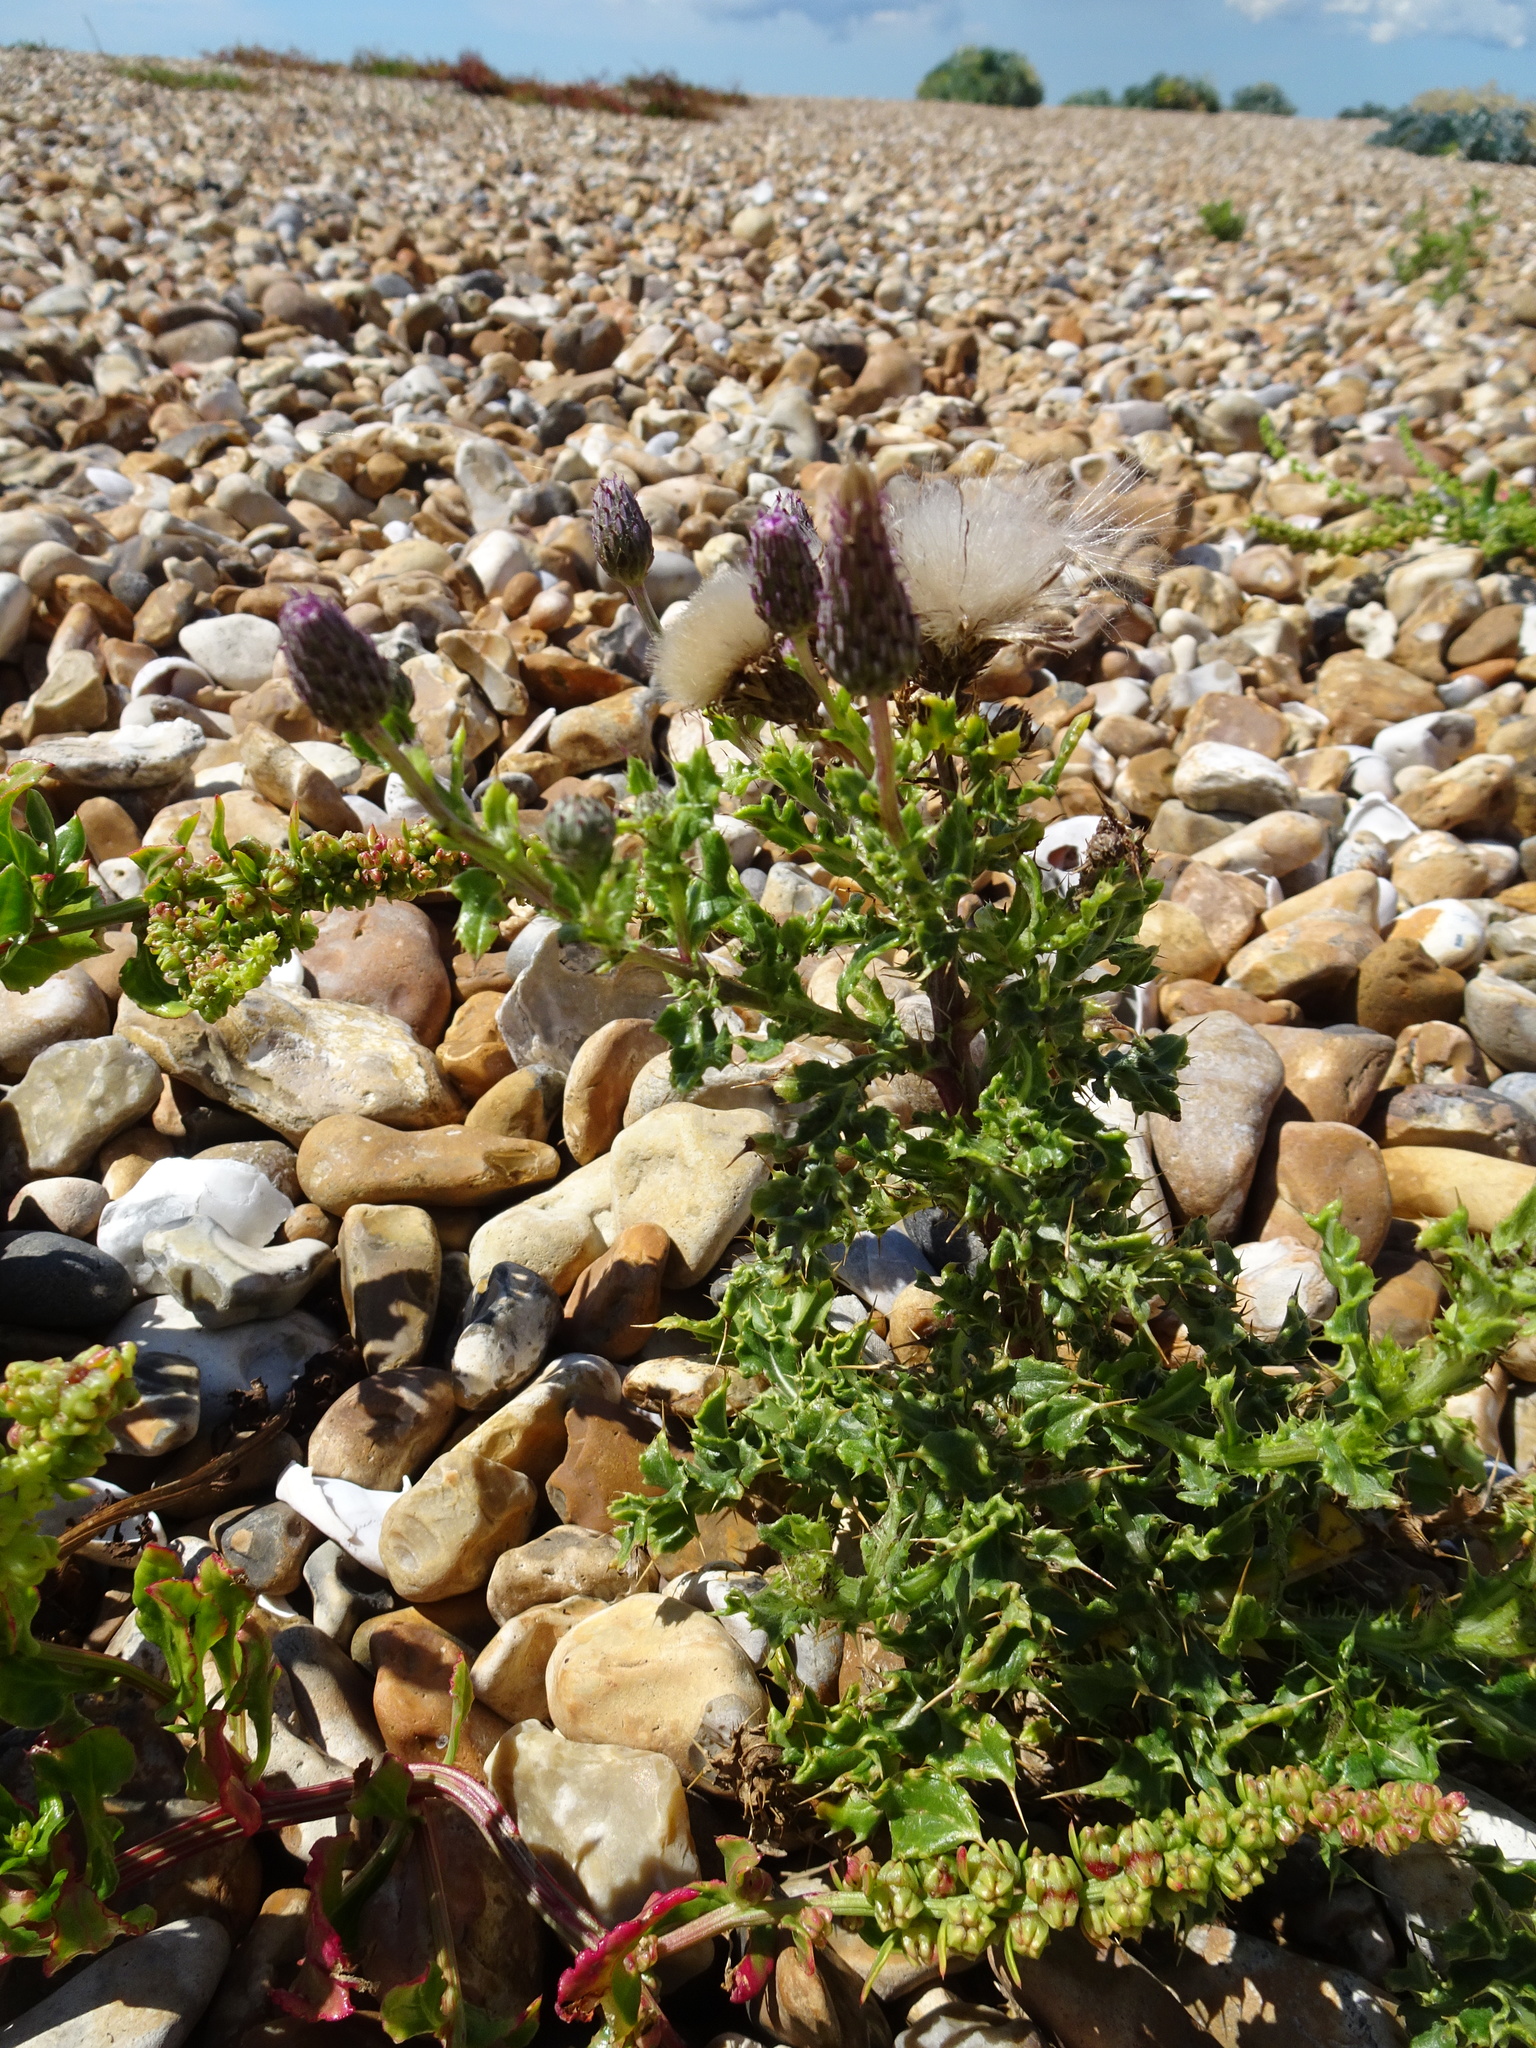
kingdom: Plantae
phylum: Tracheophyta
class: Magnoliopsida
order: Asterales
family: Asteraceae
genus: Cirsium
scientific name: Cirsium arvense
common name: Creeping thistle
